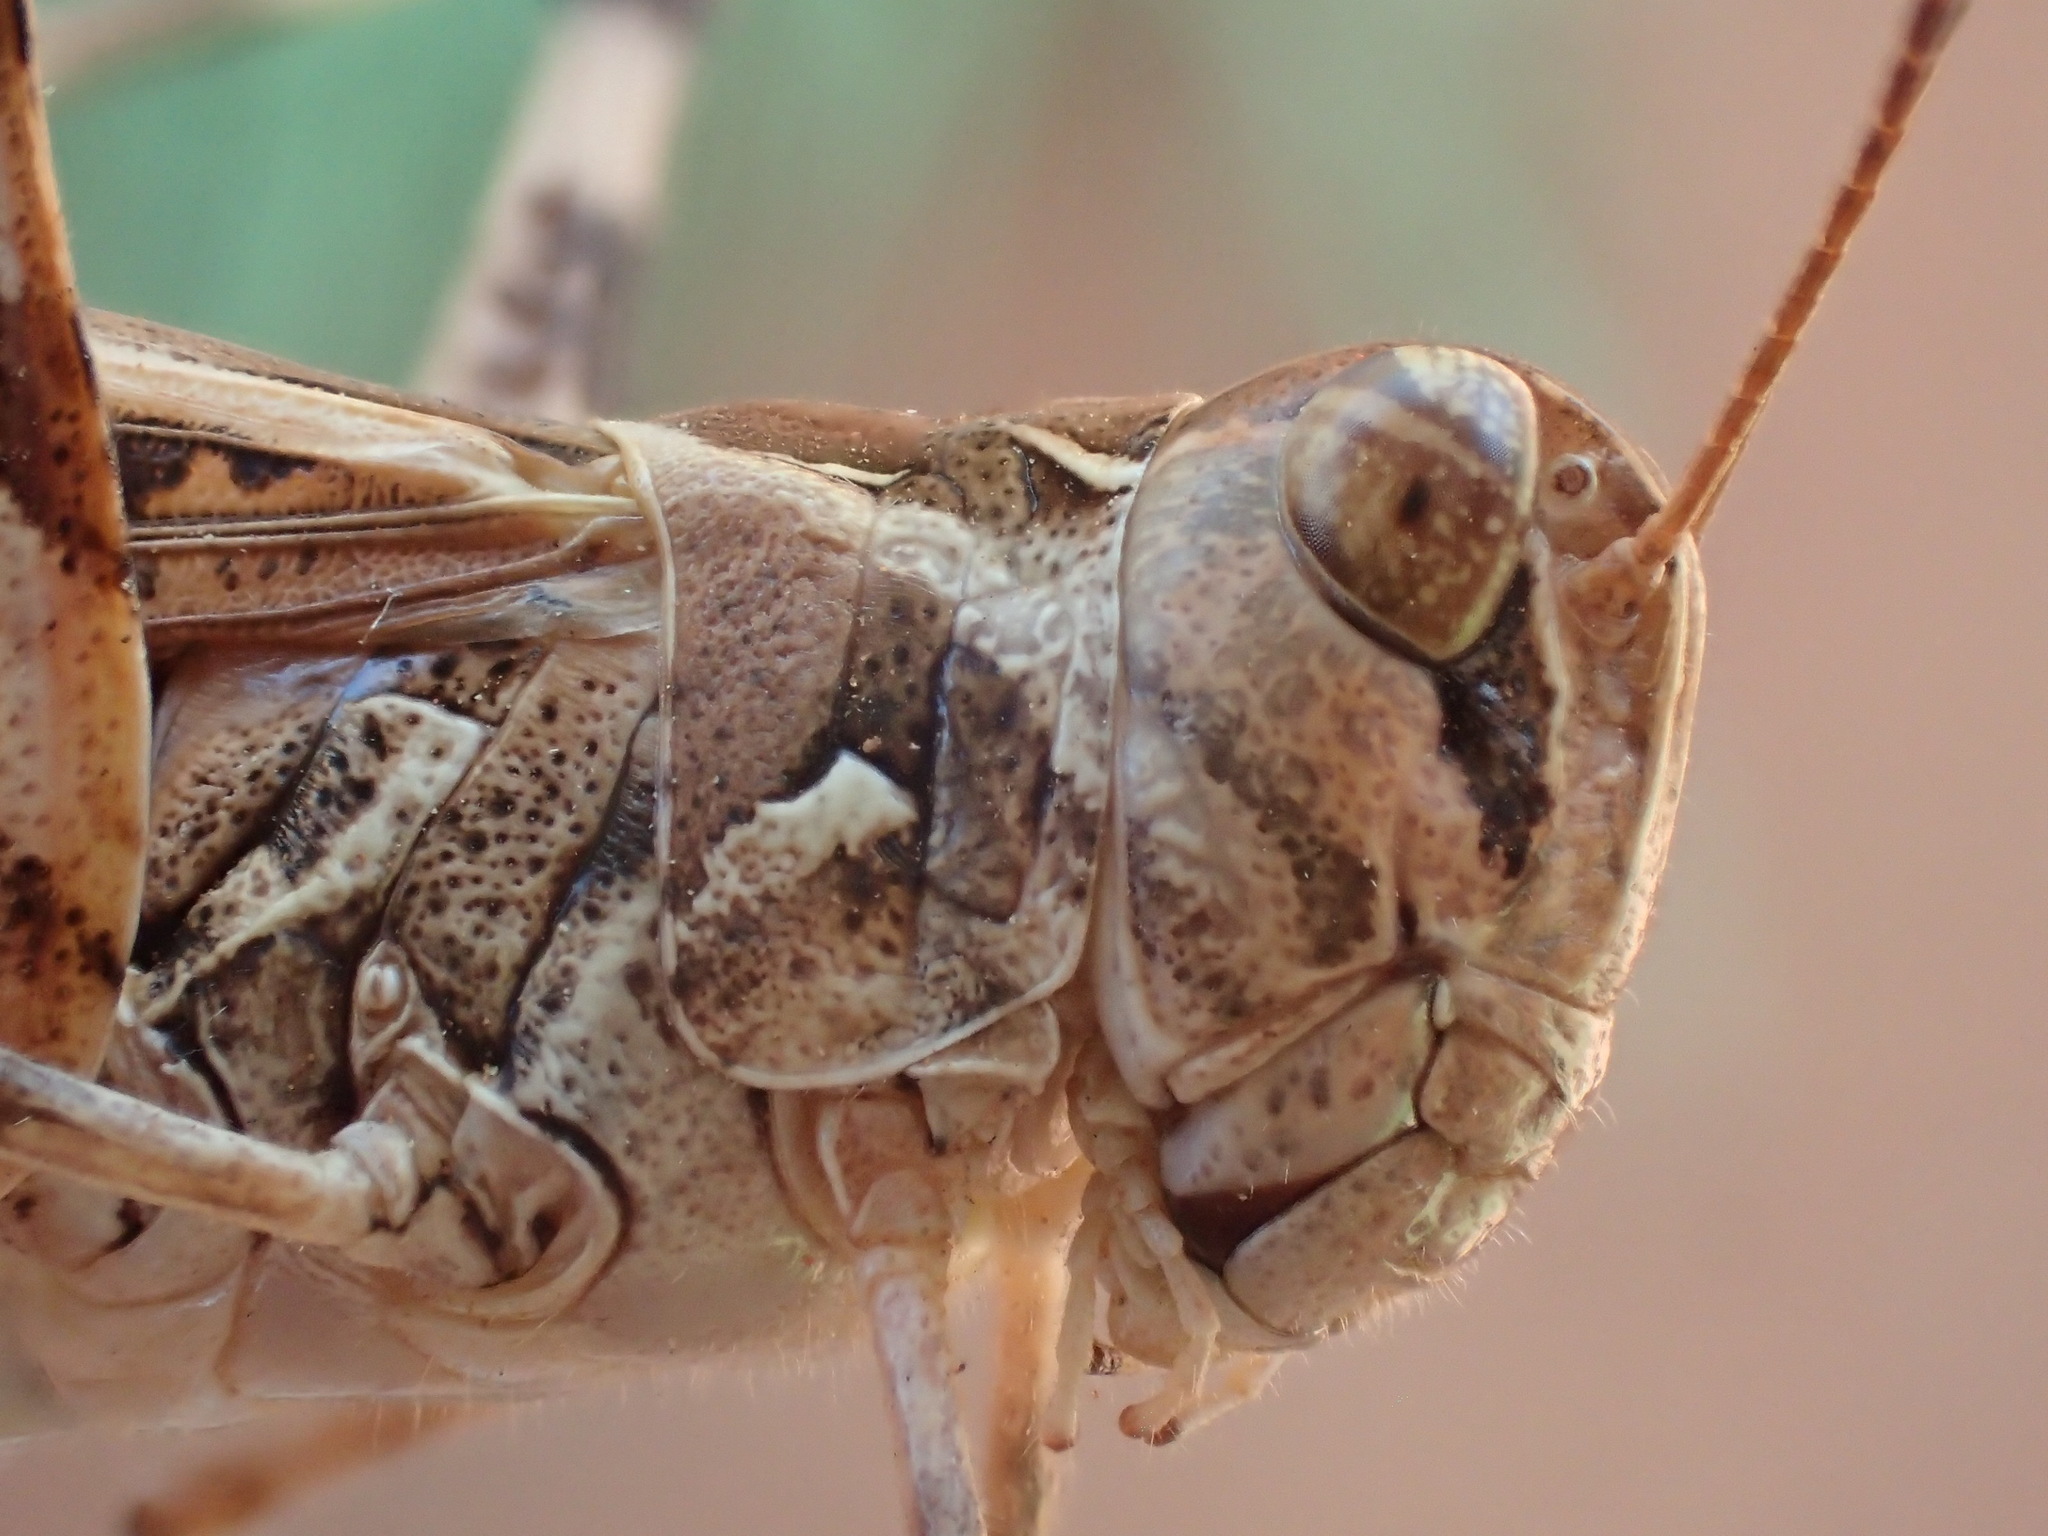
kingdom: Animalia
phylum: Arthropoda
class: Insecta
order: Orthoptera
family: Acrididae
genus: Oedaleus
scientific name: Oedaleus australis
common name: Eastern oedaleus
